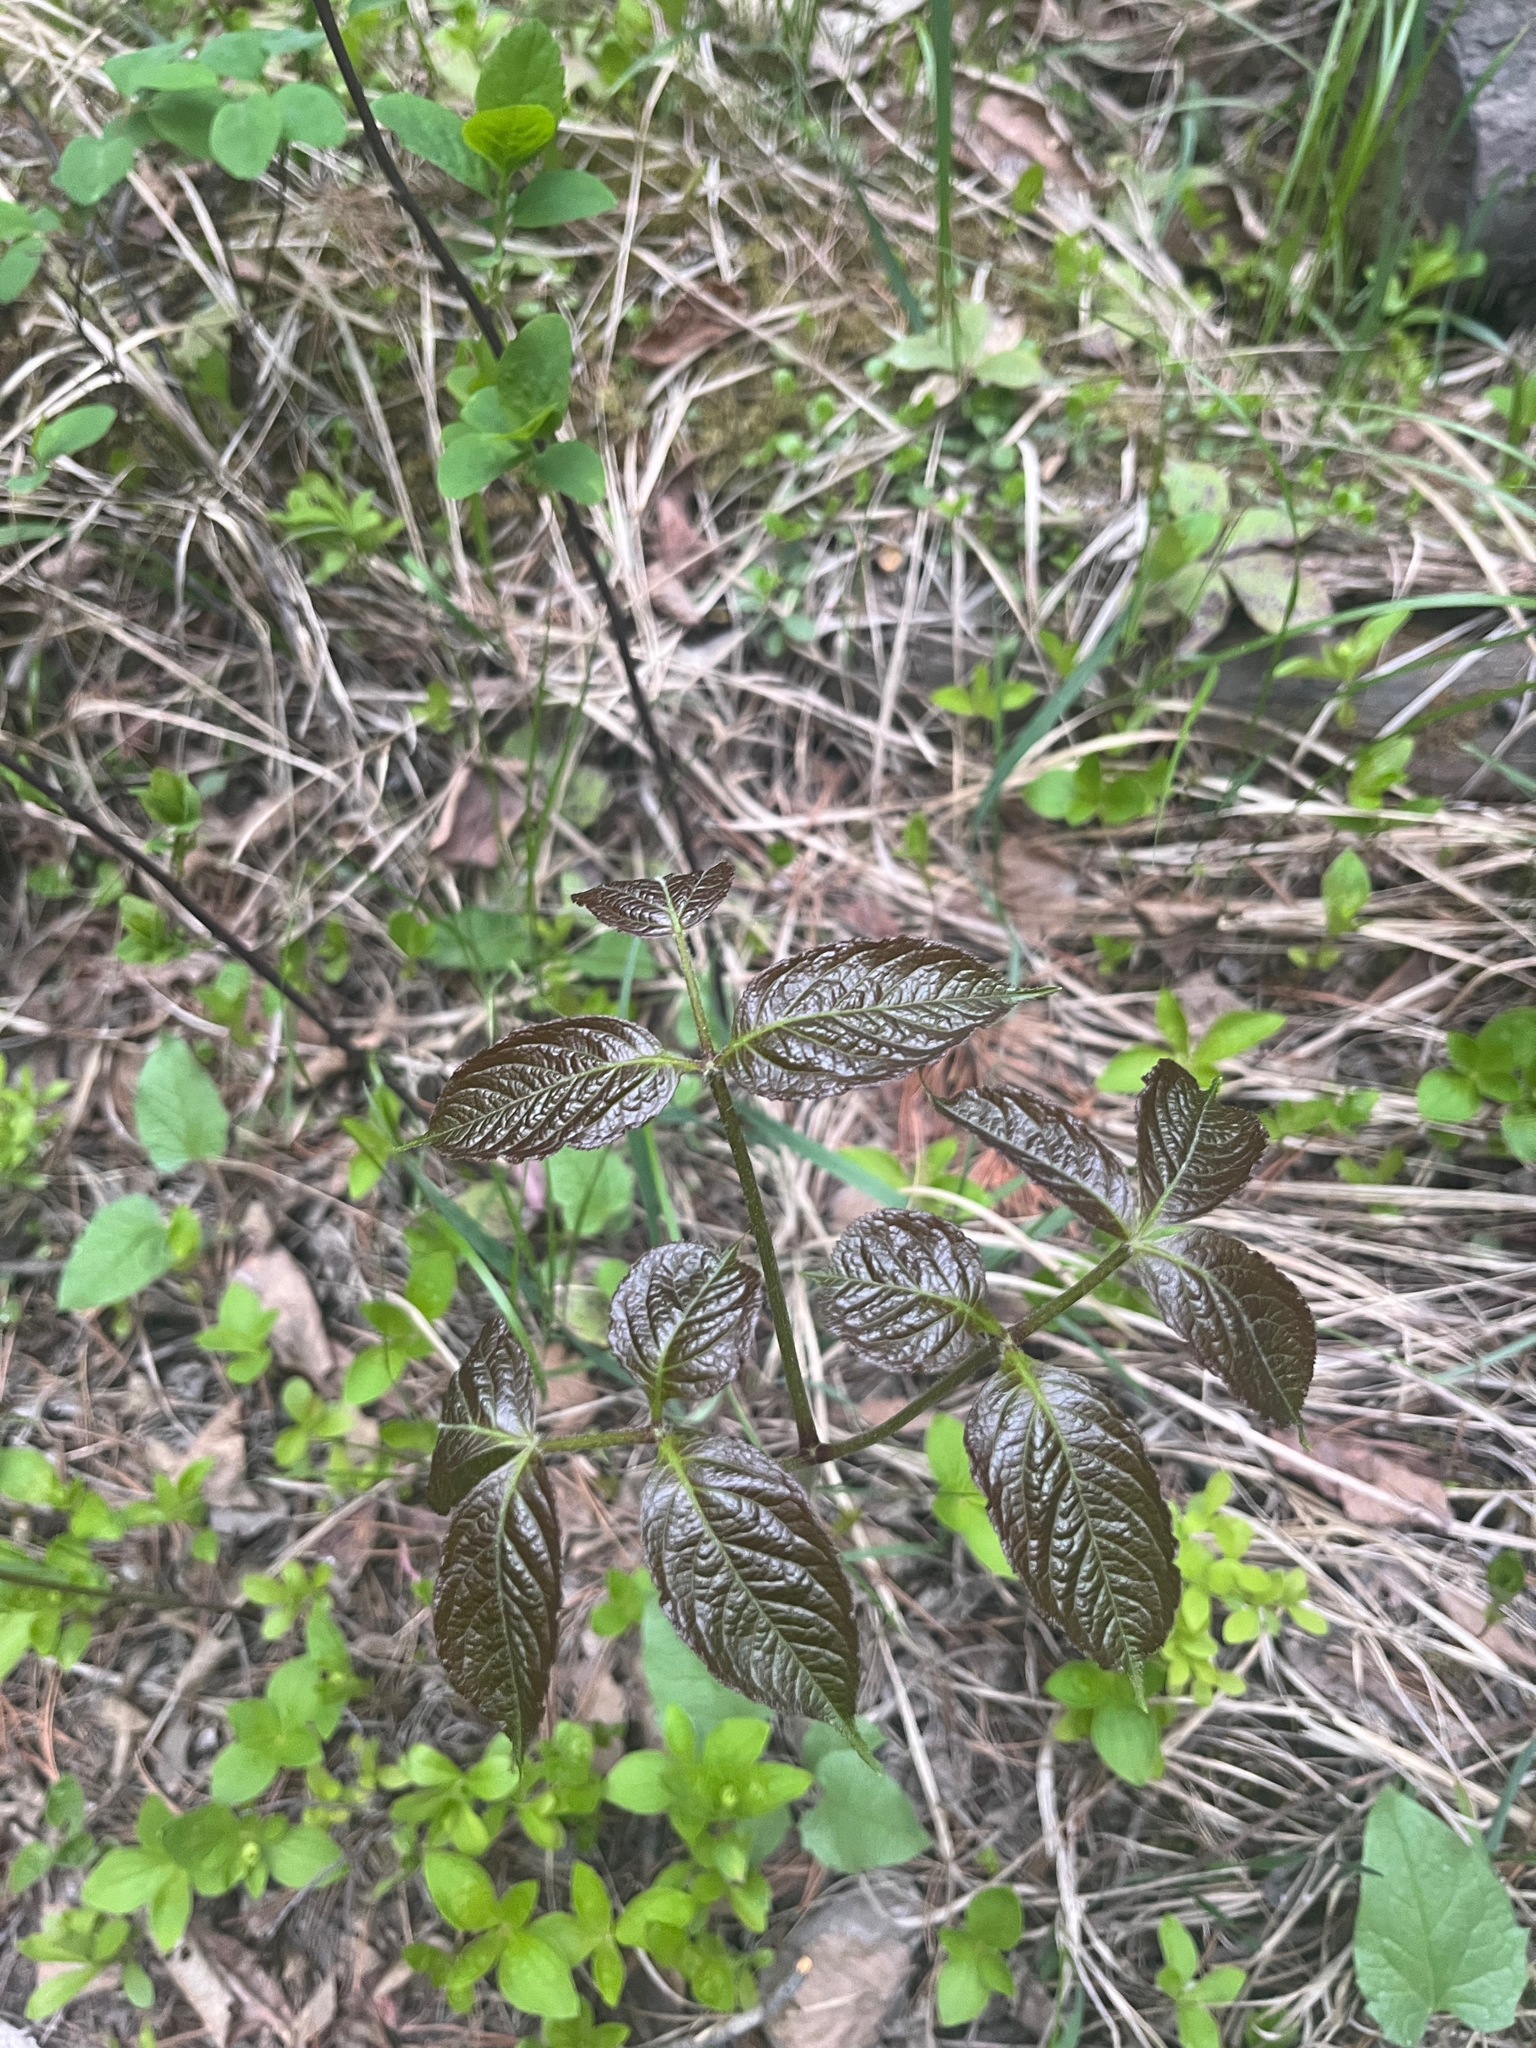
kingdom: Plantae
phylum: Tracheophyta
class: Magnoliopsida
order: Apiales
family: Araliaceae
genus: Aralia
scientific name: Aralia nudicaulis
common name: Wild sarsaparilla
